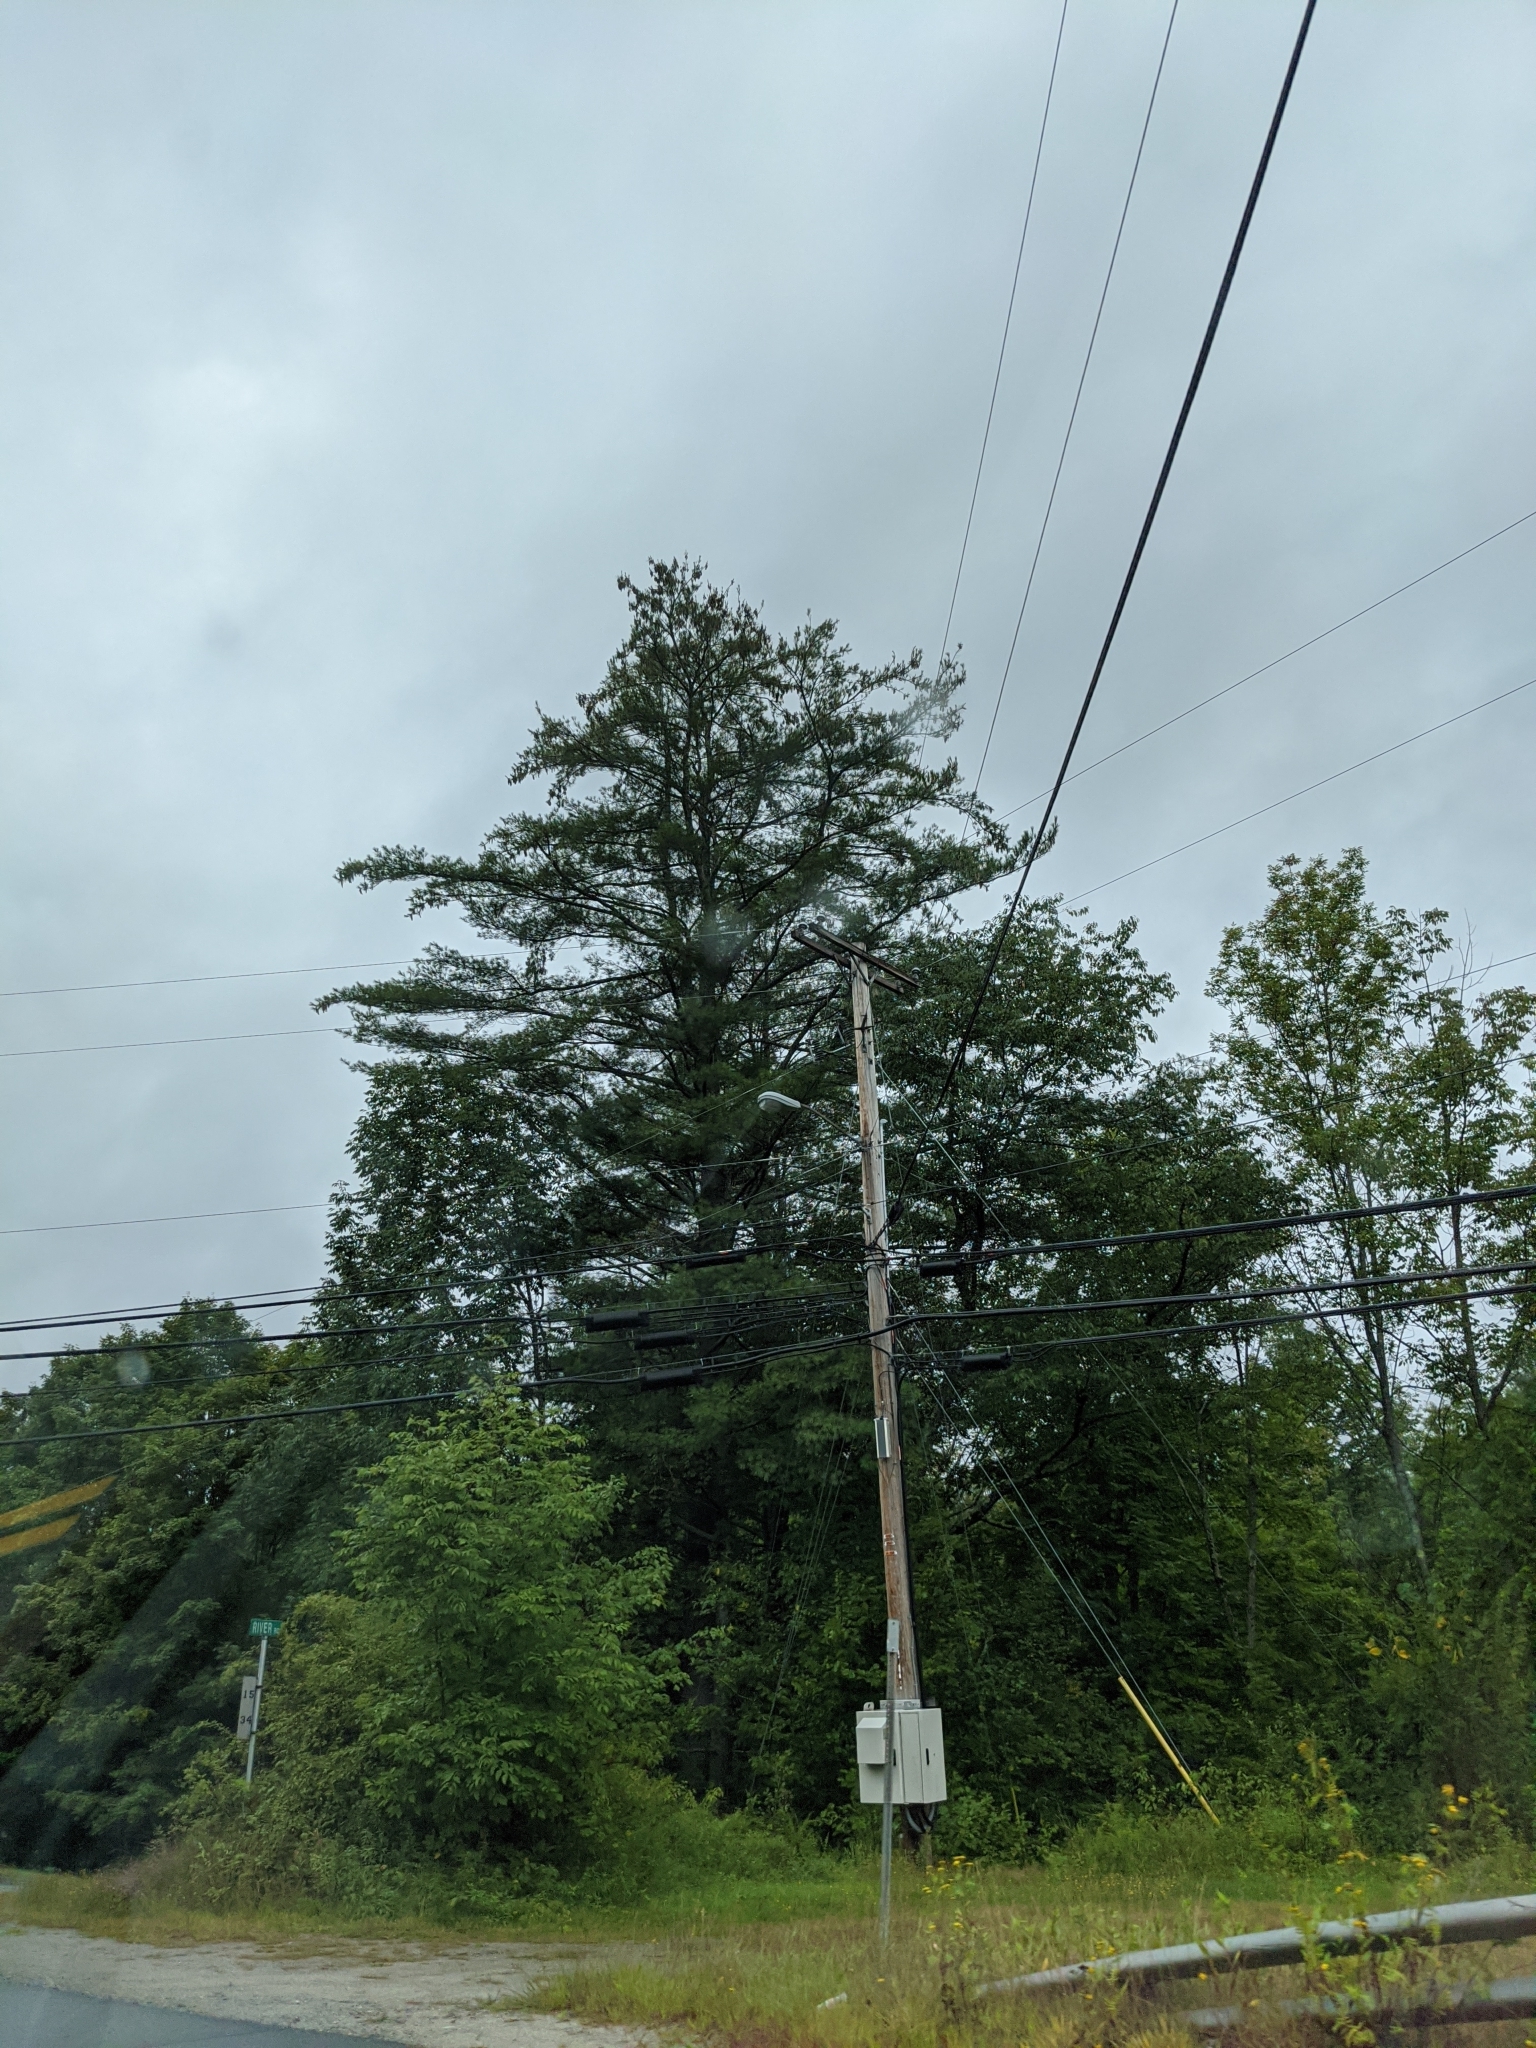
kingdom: Plantae
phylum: Tracheophyta
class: Pinopsida
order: Pinales
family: Pinaceae
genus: Pinus
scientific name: Pinus strobus
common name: Weymouth pine
